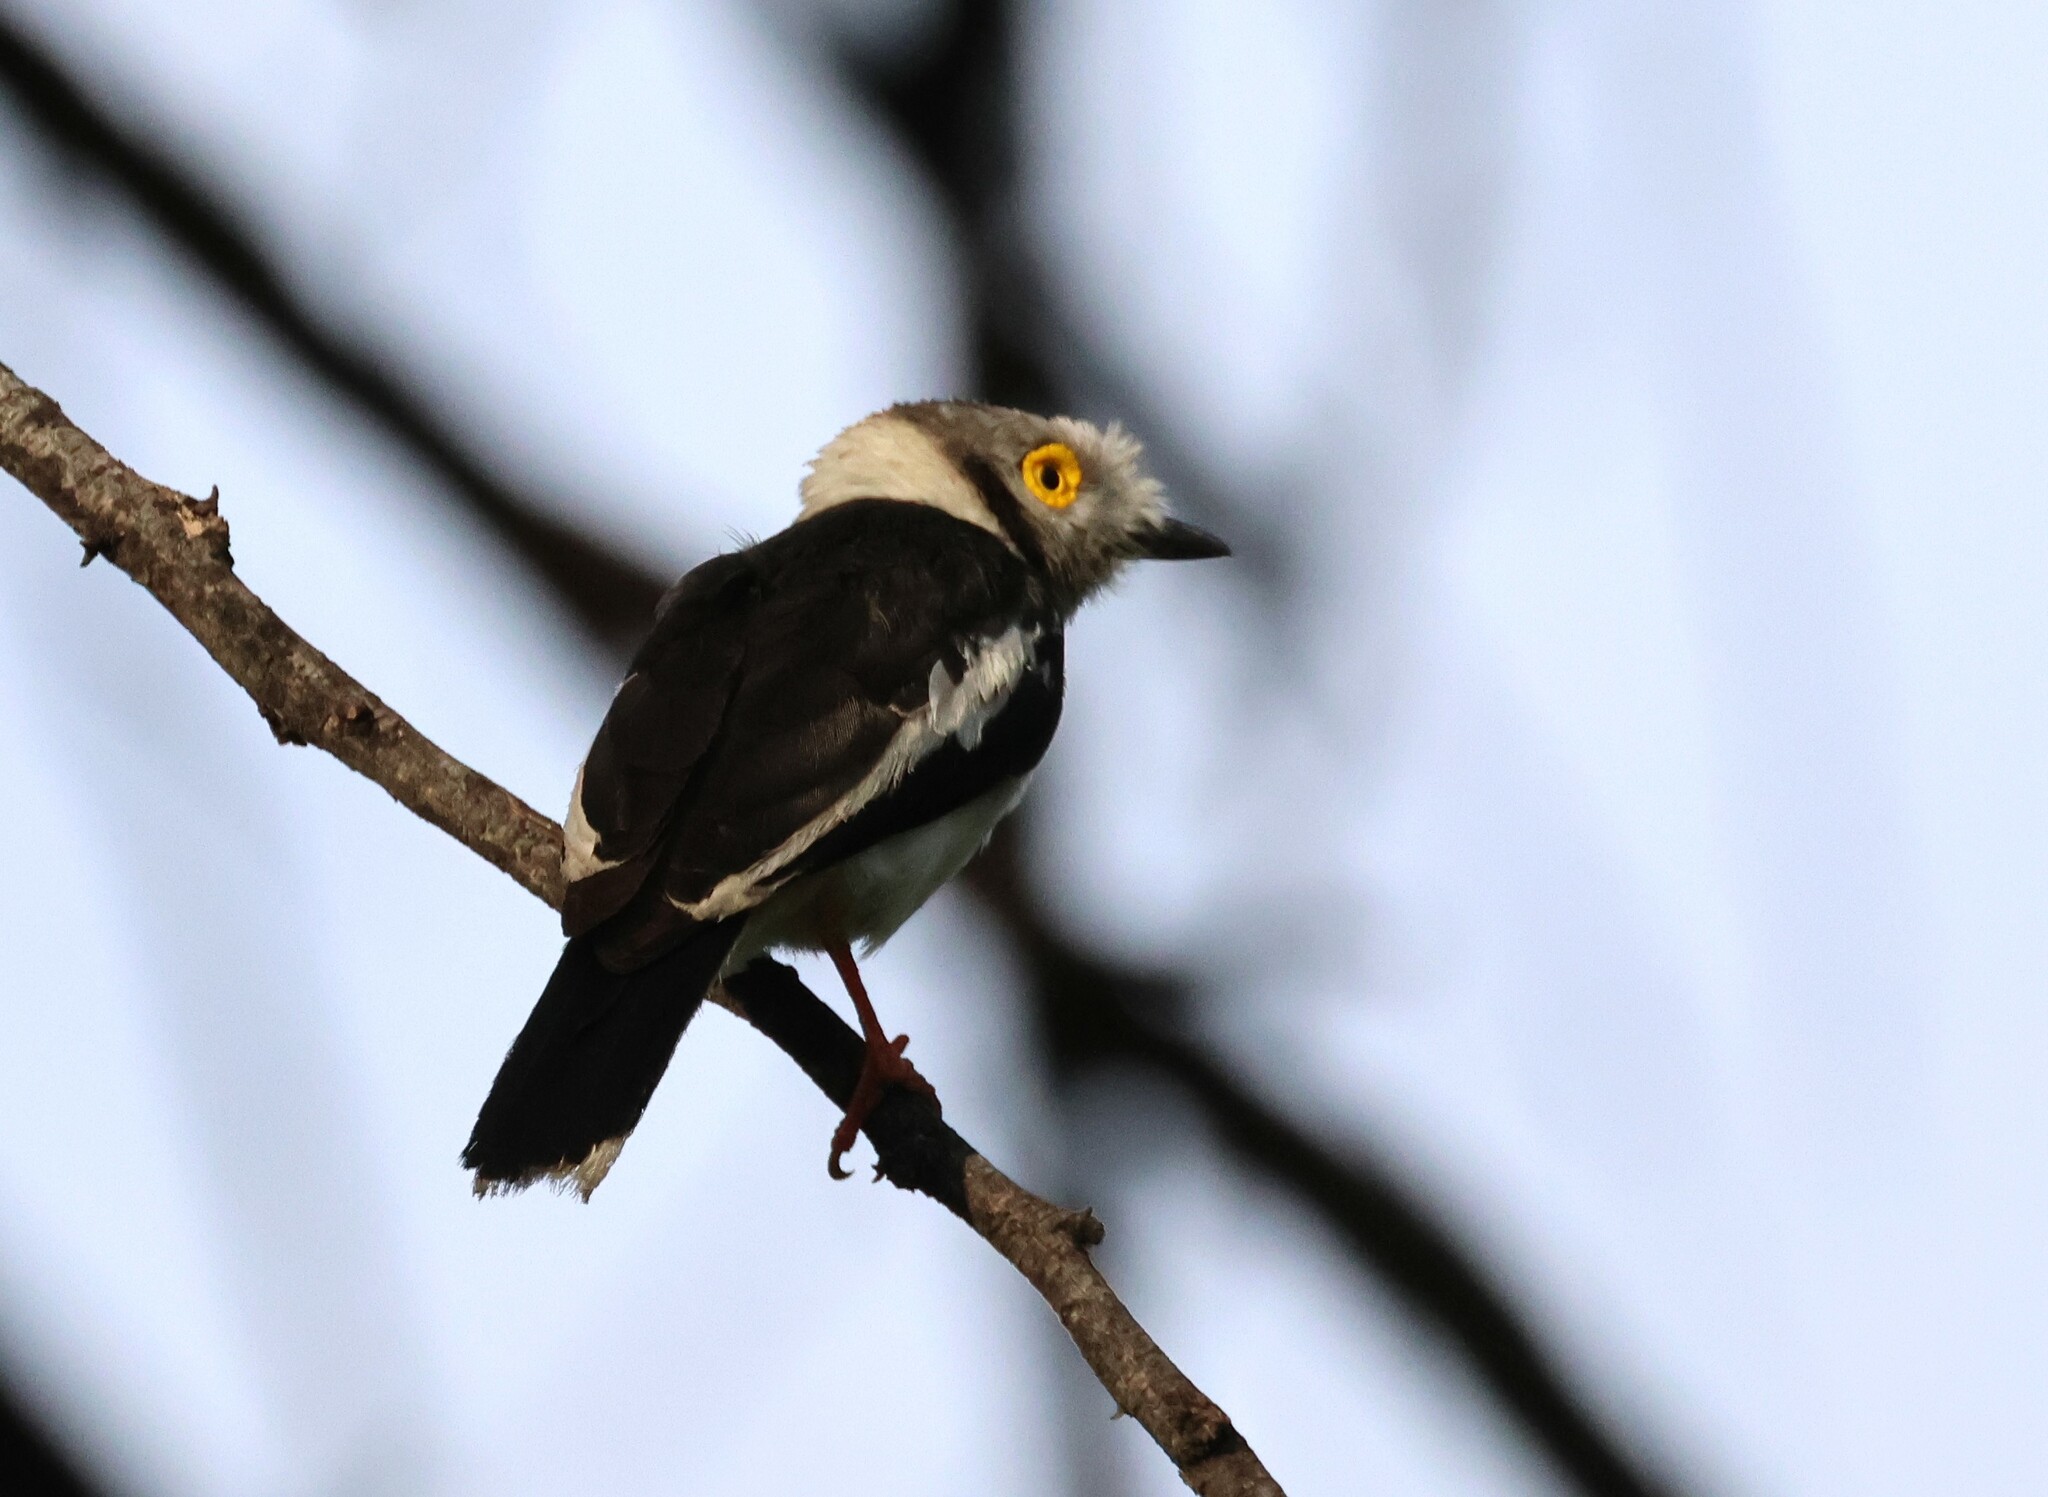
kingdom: Animalia
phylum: Chordata
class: Aves
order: Passeriformes
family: Prionopidae
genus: Prionops
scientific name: Prionops plumatus
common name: White-crested helmetshrike
